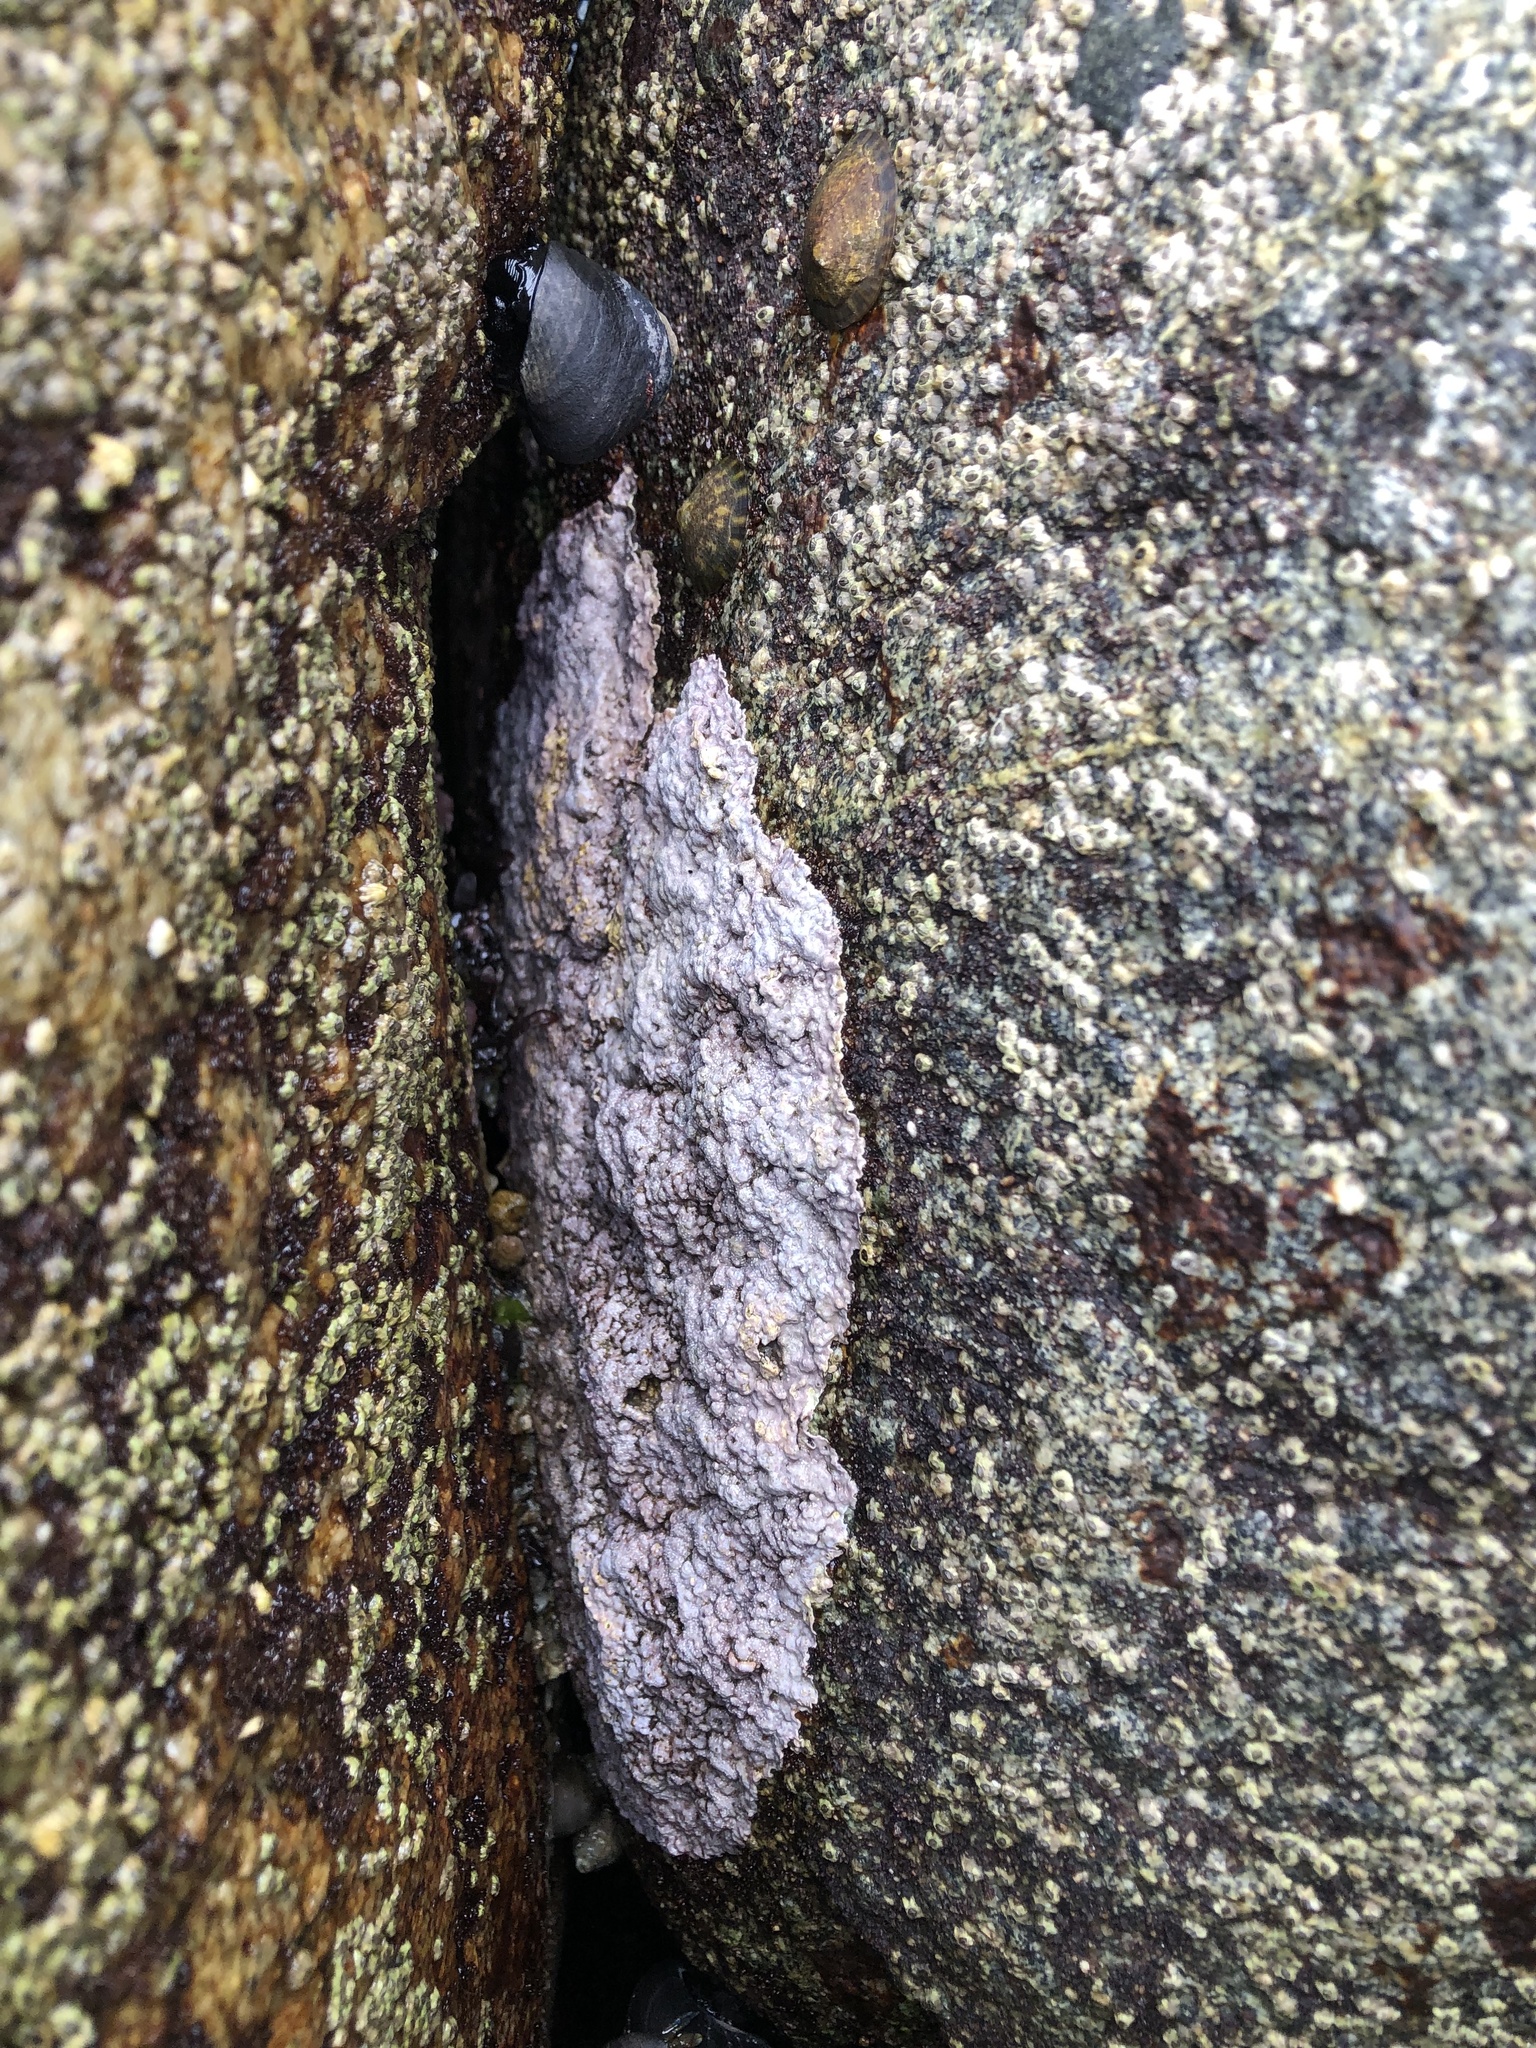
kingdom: Plantae
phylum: Rhodophyta
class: Florideophyceae
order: Corallinales
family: Corallinaceae
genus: Chamberlainium
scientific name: Chamberlainium tumidum
